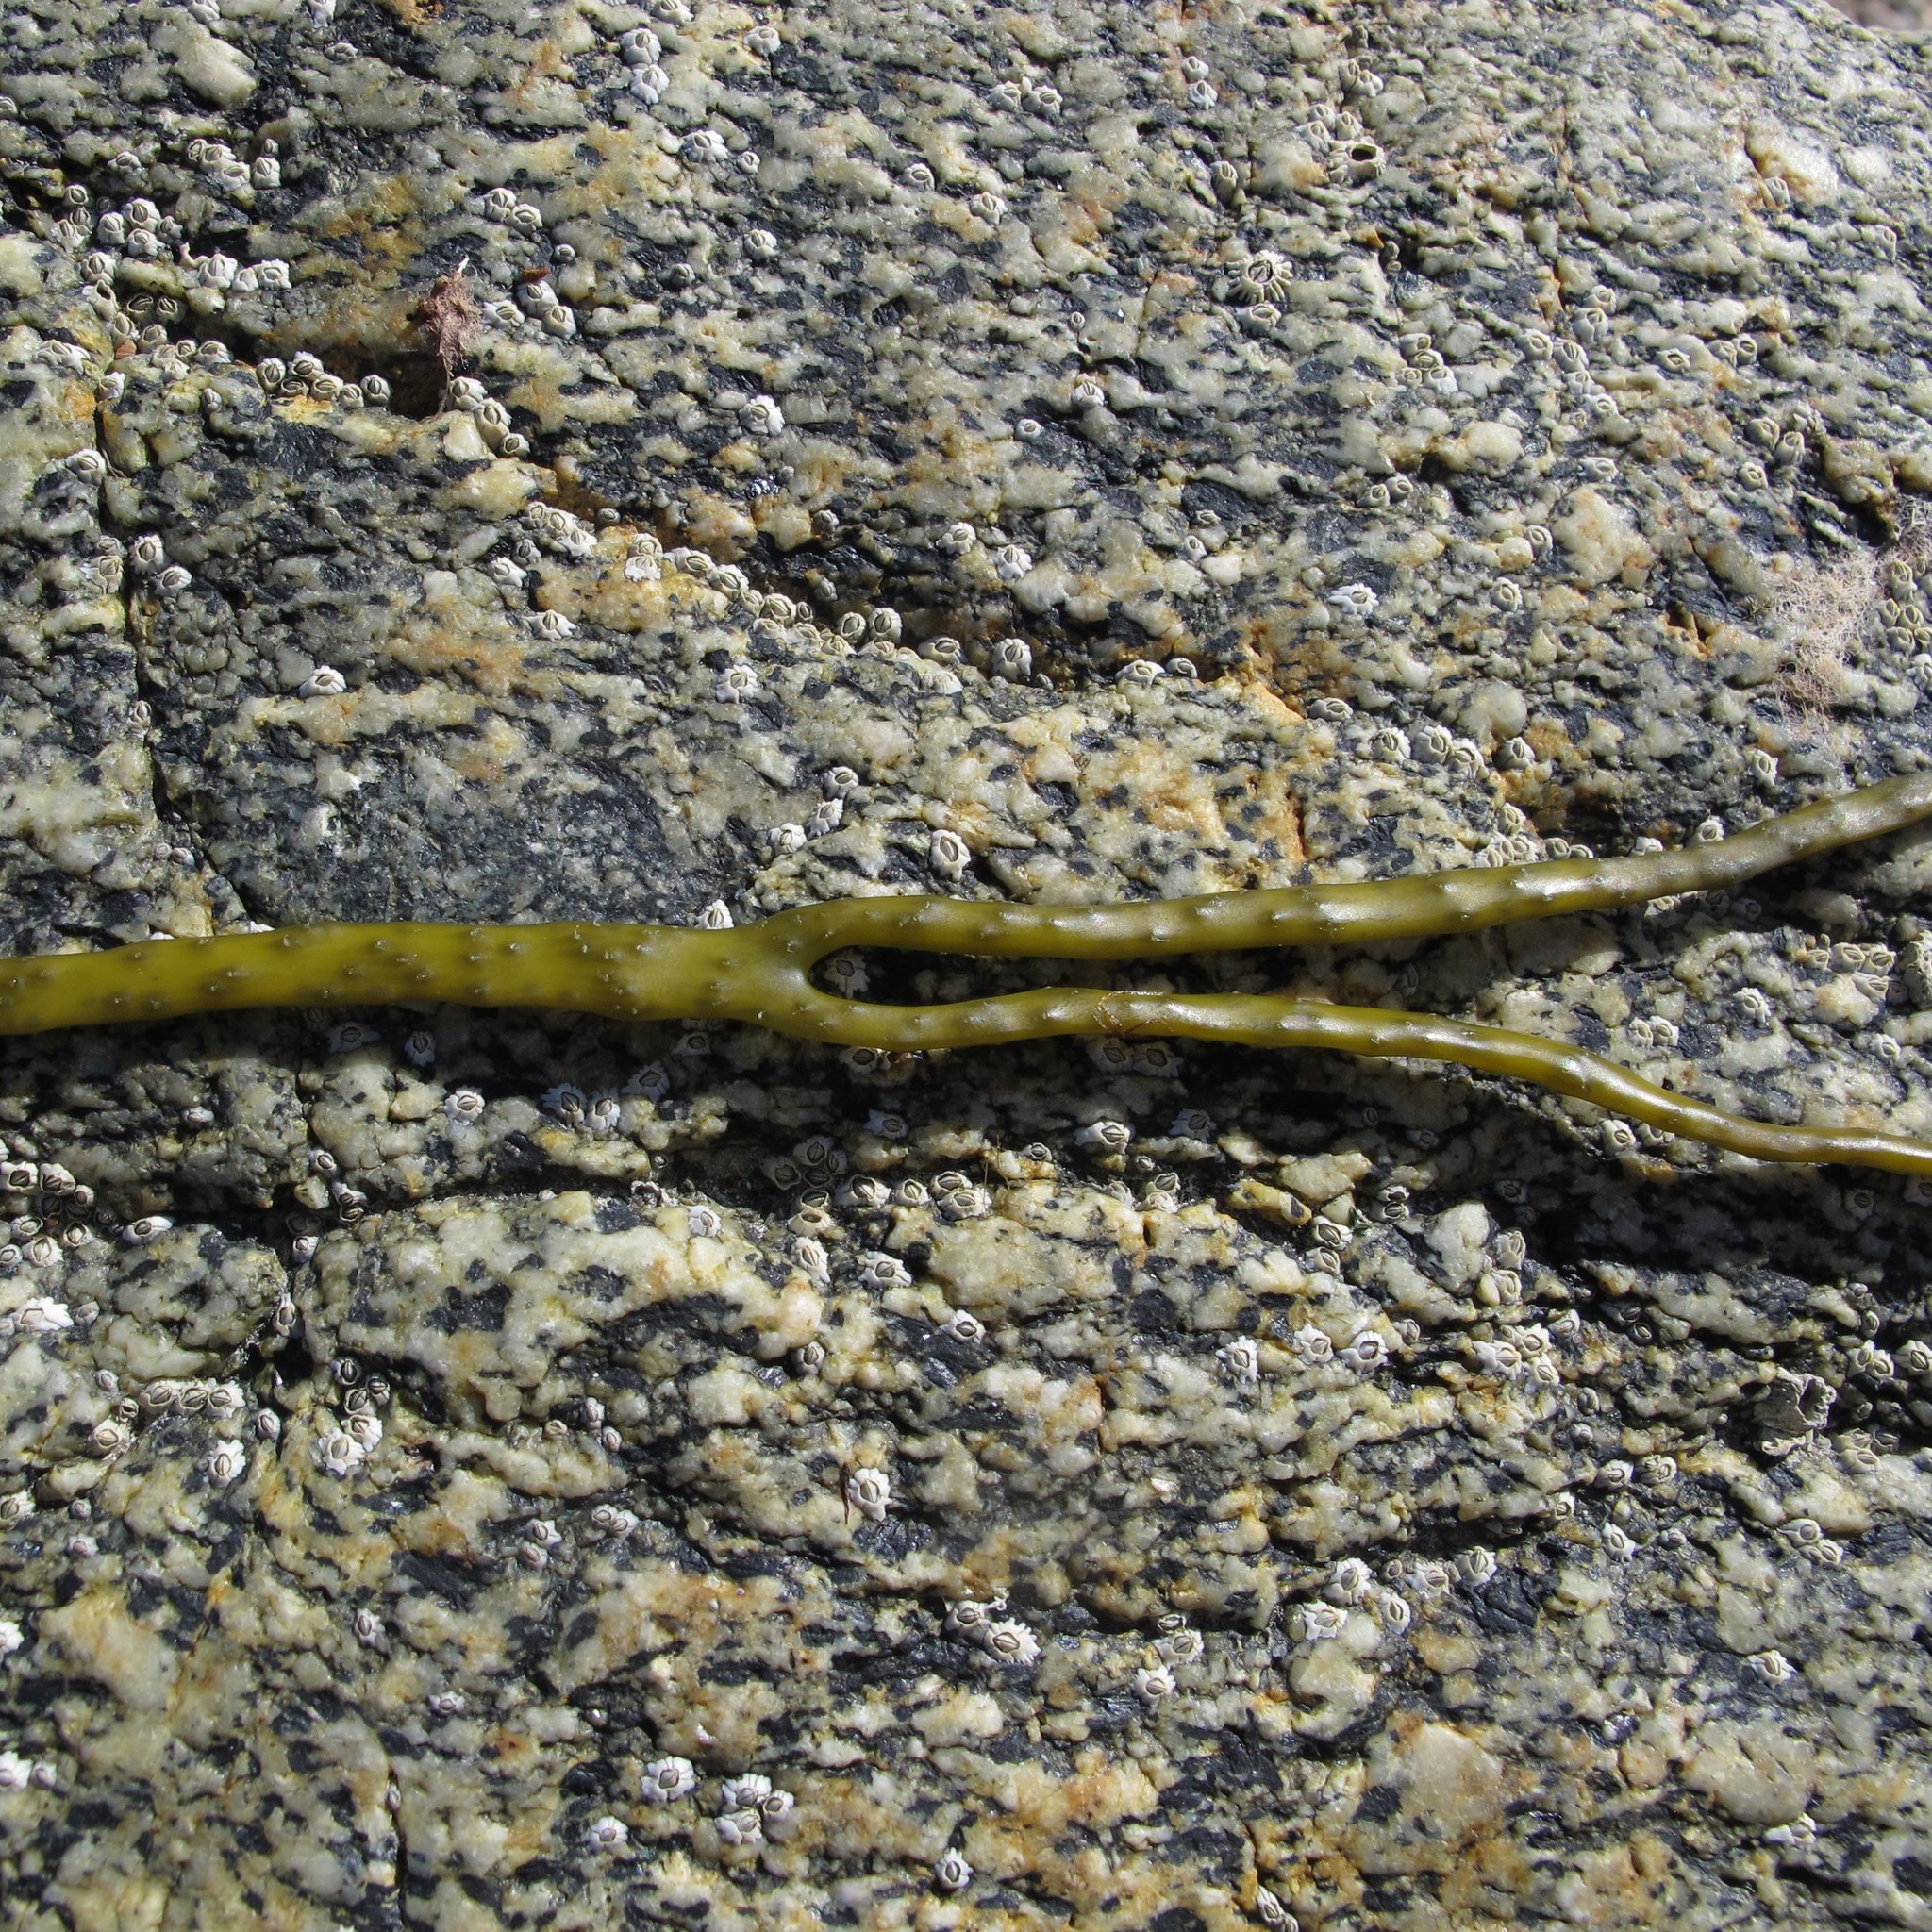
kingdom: Chromista
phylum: Ochrophyta
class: Phaeophyceae
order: Fucales
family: Himanthaliaceae
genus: Himanthalia
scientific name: Himanthalia elongata
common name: Sea-thong
